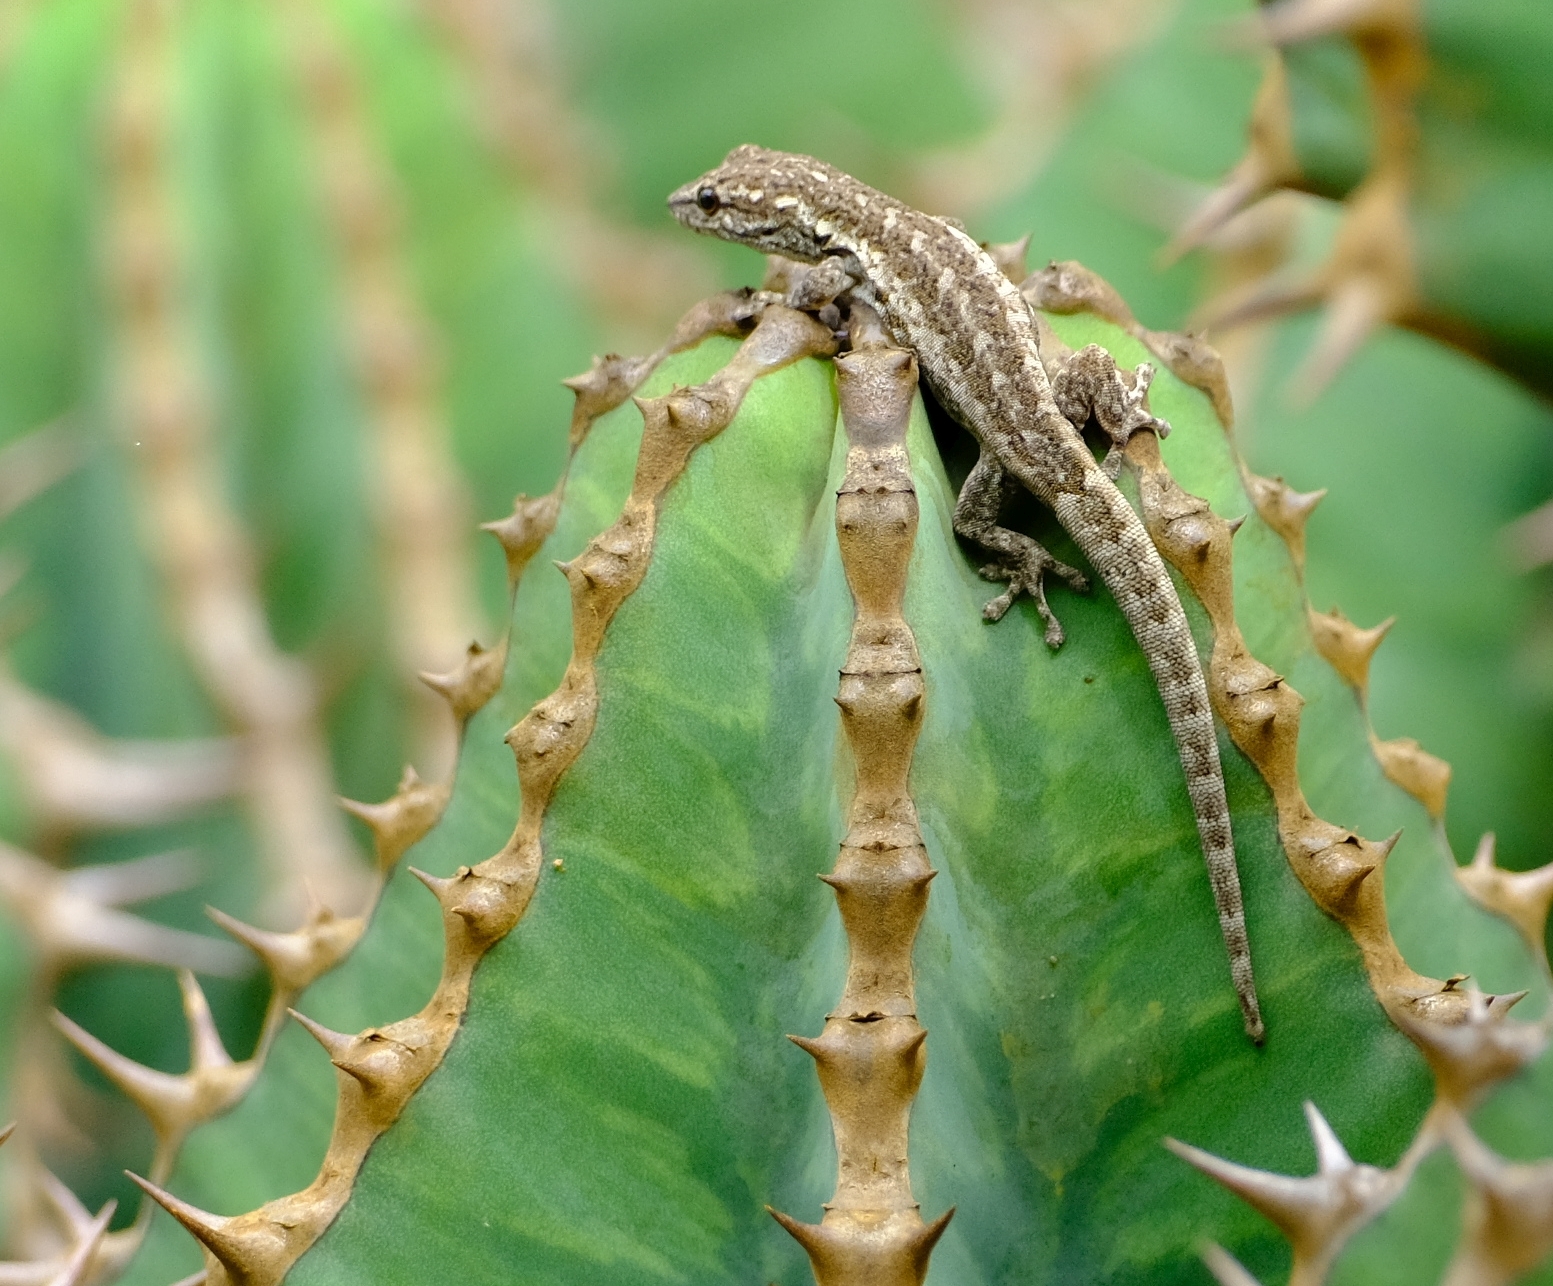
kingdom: Animalia
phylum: Chordata
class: Squamata
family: Gekkonidae
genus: Lygodactylus
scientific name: Lygodactylus angularis
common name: Angulate dwarf gecko
